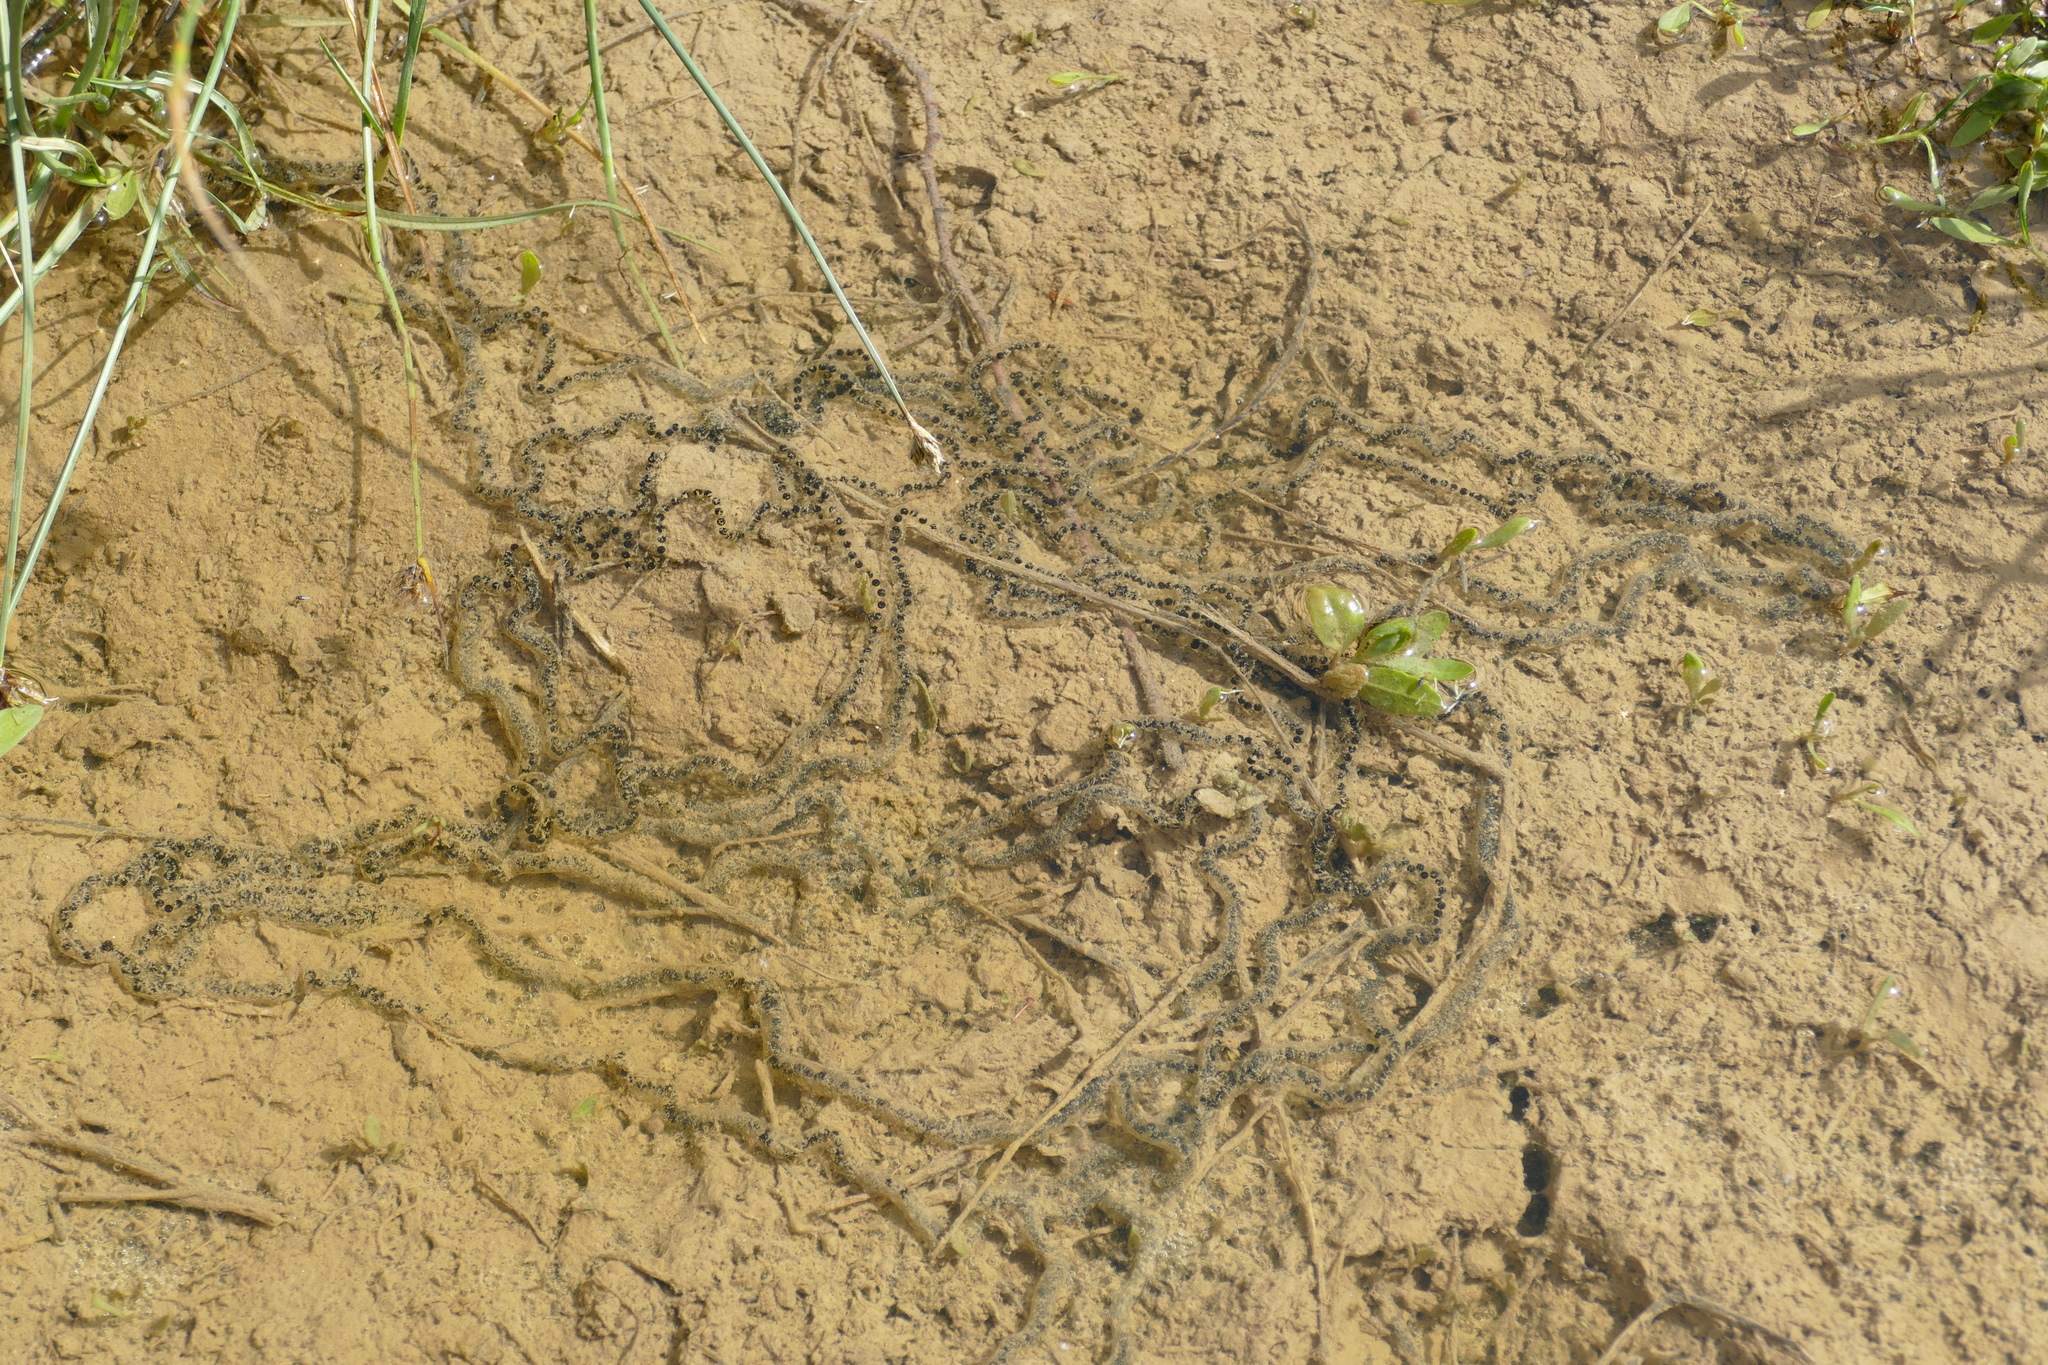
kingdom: Animalia
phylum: Chordata
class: Amphibia
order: Anura
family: Bufonidae
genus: Epidalea
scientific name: Epidalea calamita
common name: Natterjack toad
